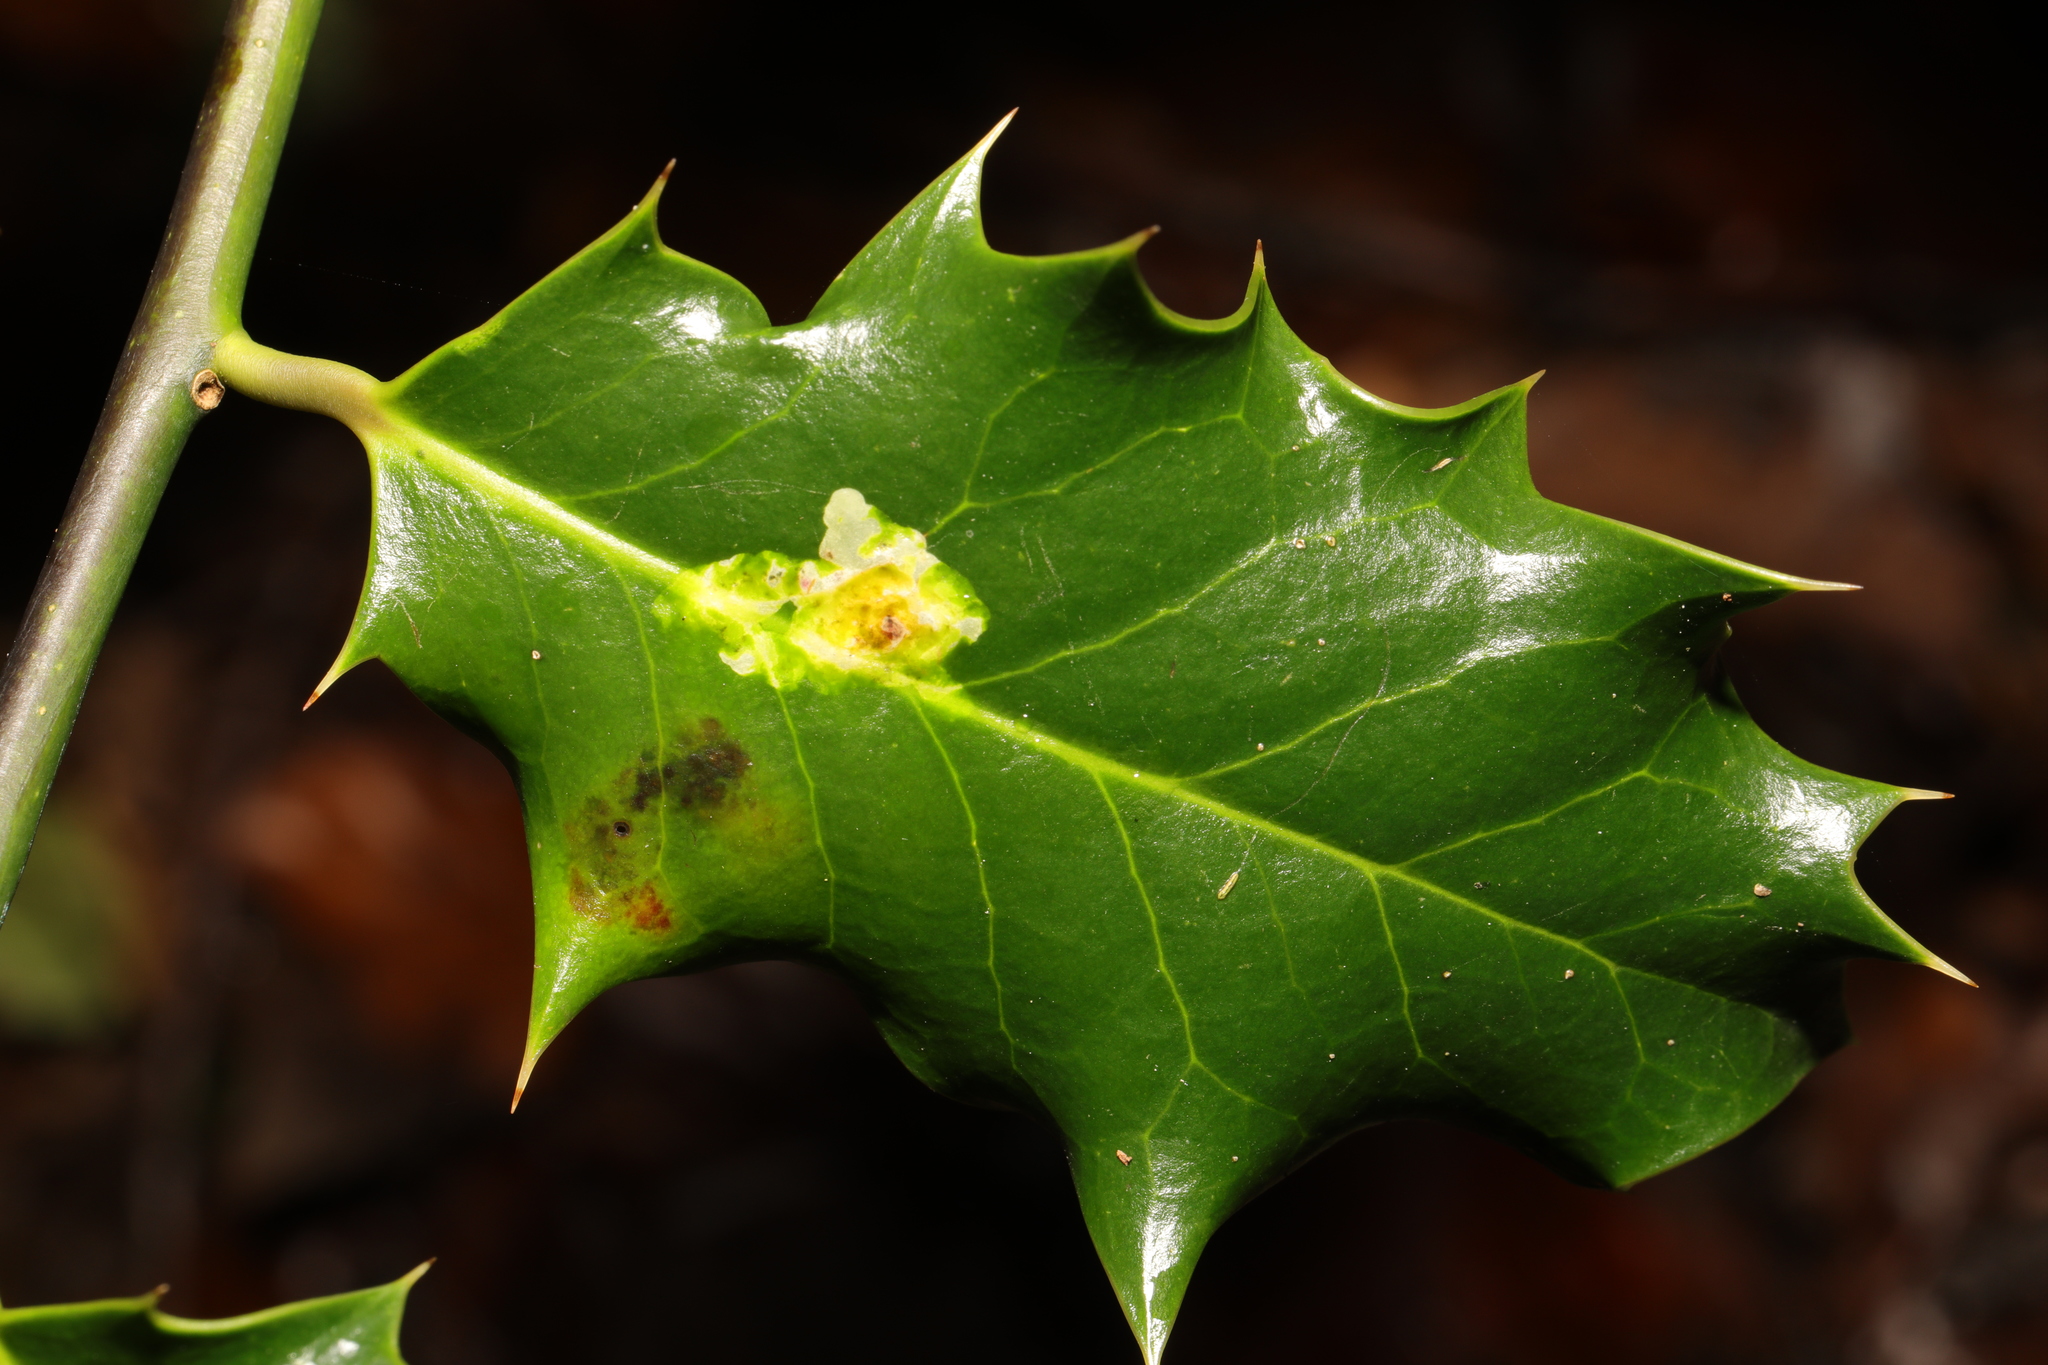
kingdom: Animalia
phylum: Arthropoda
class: Insecta
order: Diptera
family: Agromyzidae
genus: Phytomyza
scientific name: Phytomyza ilicis
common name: Holly leafminer
